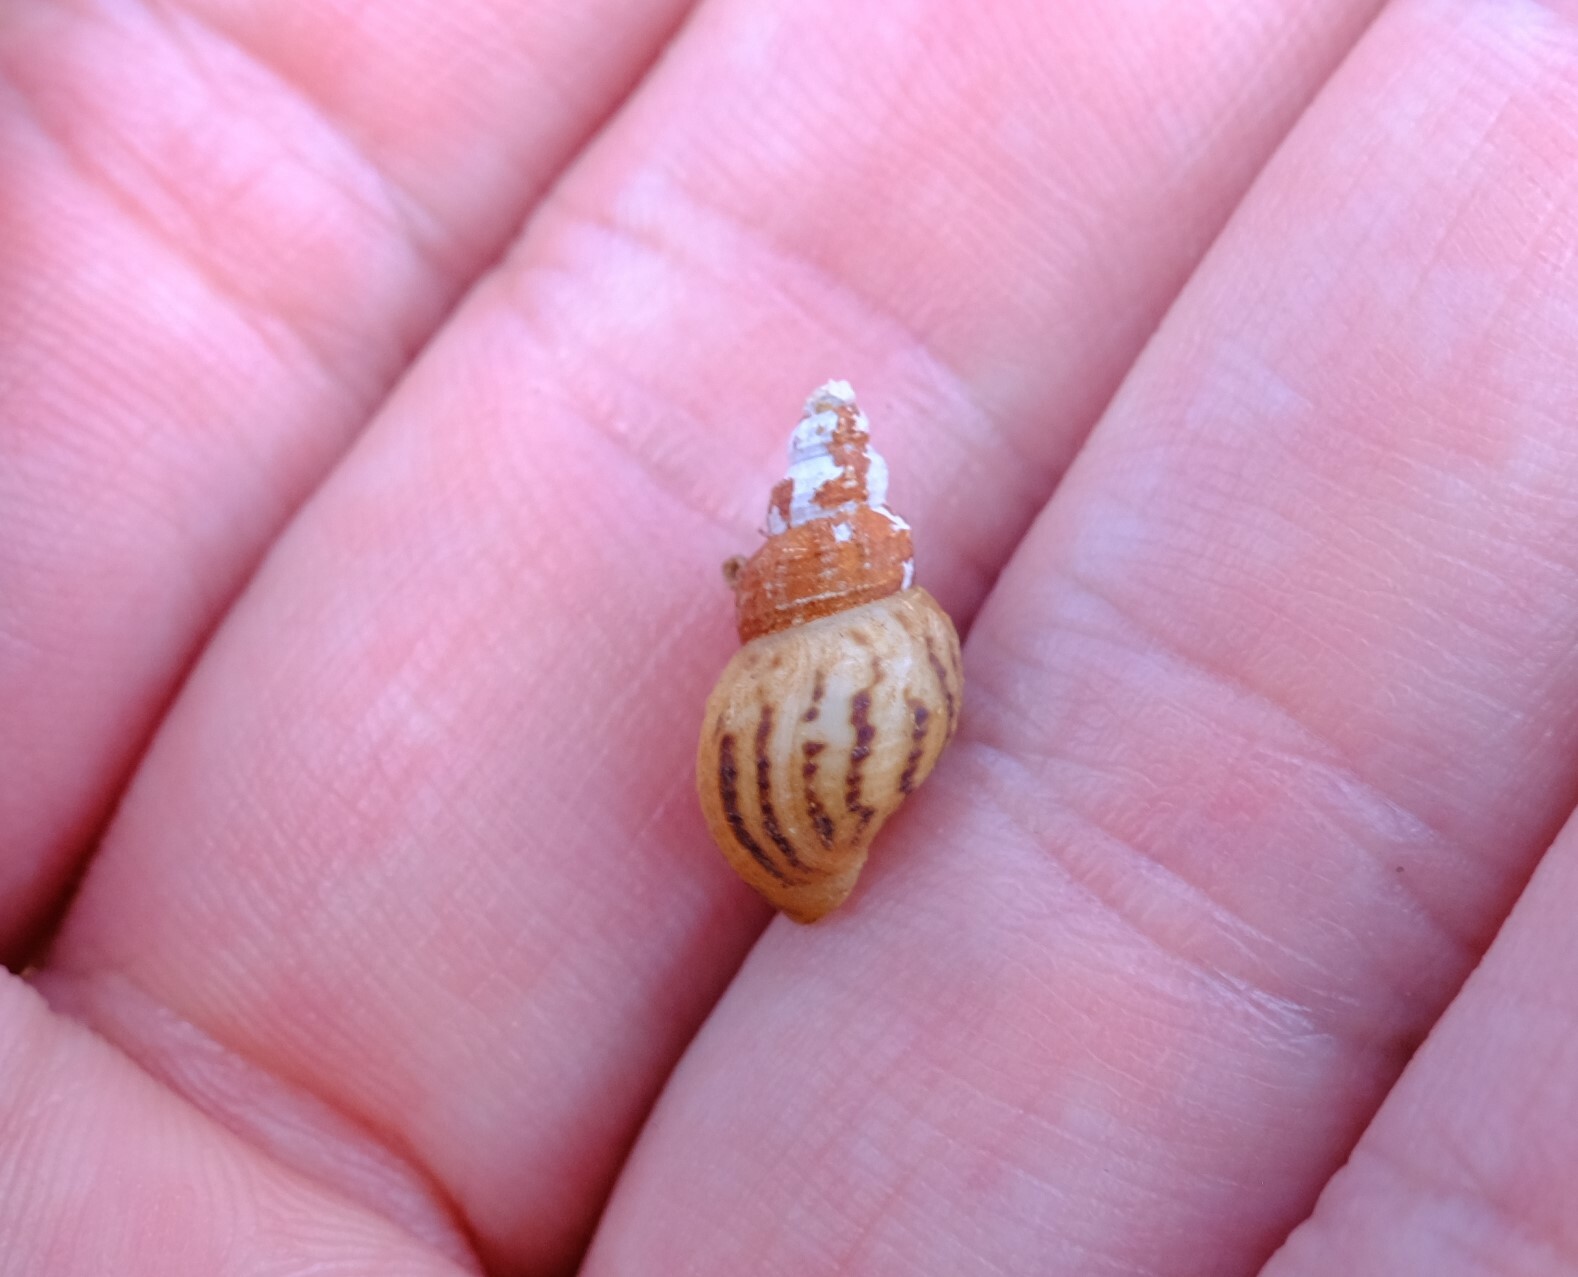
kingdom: Animalia
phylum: Mollusca
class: Gastropoda
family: Thiaridae
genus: Plotiopsis
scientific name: Plotiopsis balonnensis
